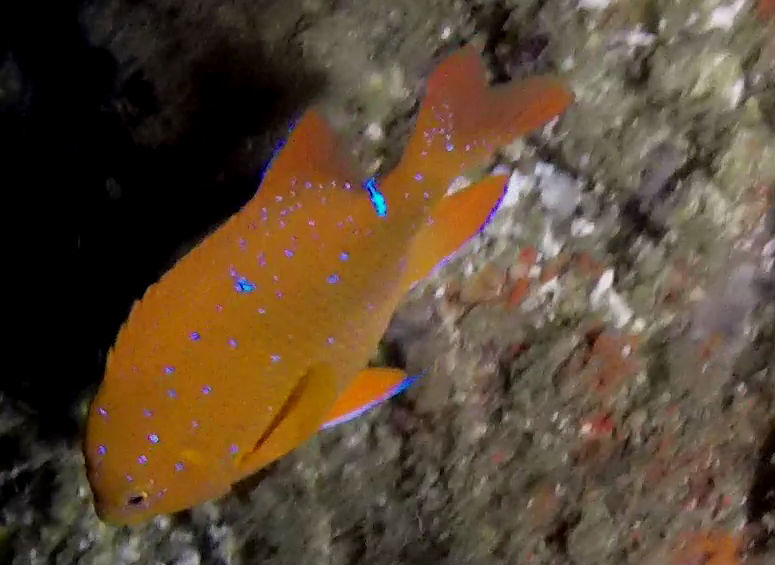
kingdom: Animalia
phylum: Chordata
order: Perciformes
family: Pomacentridae
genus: Hypsypops
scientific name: Hypsypops rubicundus
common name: Garibaldi
